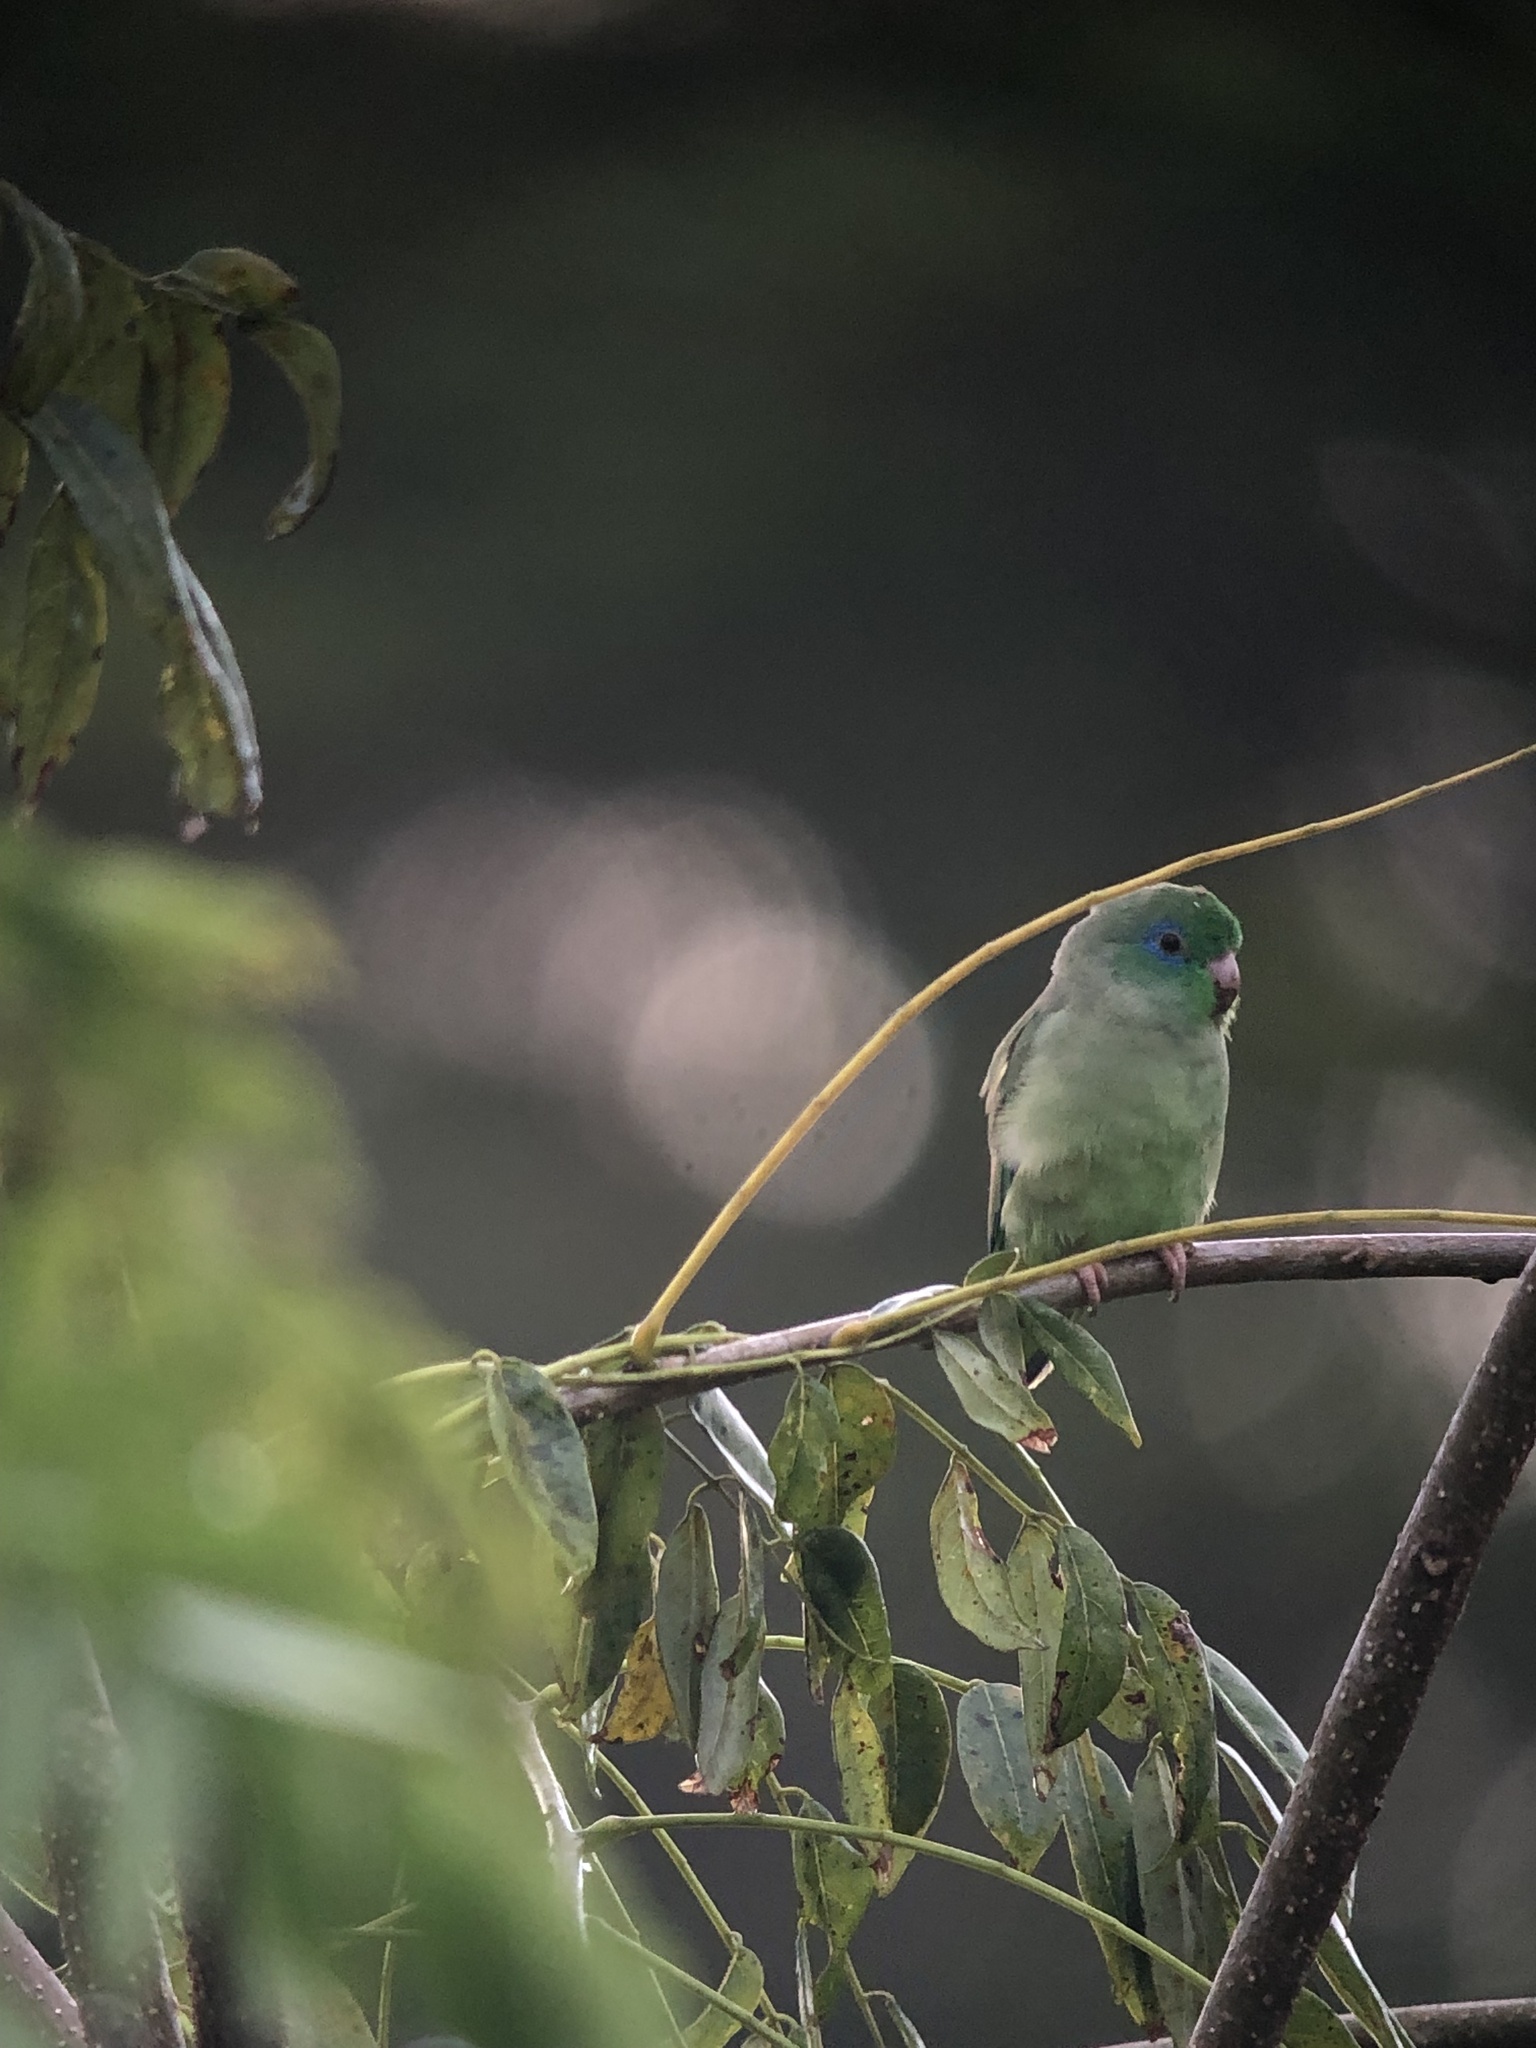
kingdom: Animalia
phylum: Chordata
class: Aves
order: Psittaciformes
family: Psittacidae
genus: Forpus
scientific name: Forpus conspicillatus
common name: Spectacled parrotlet
